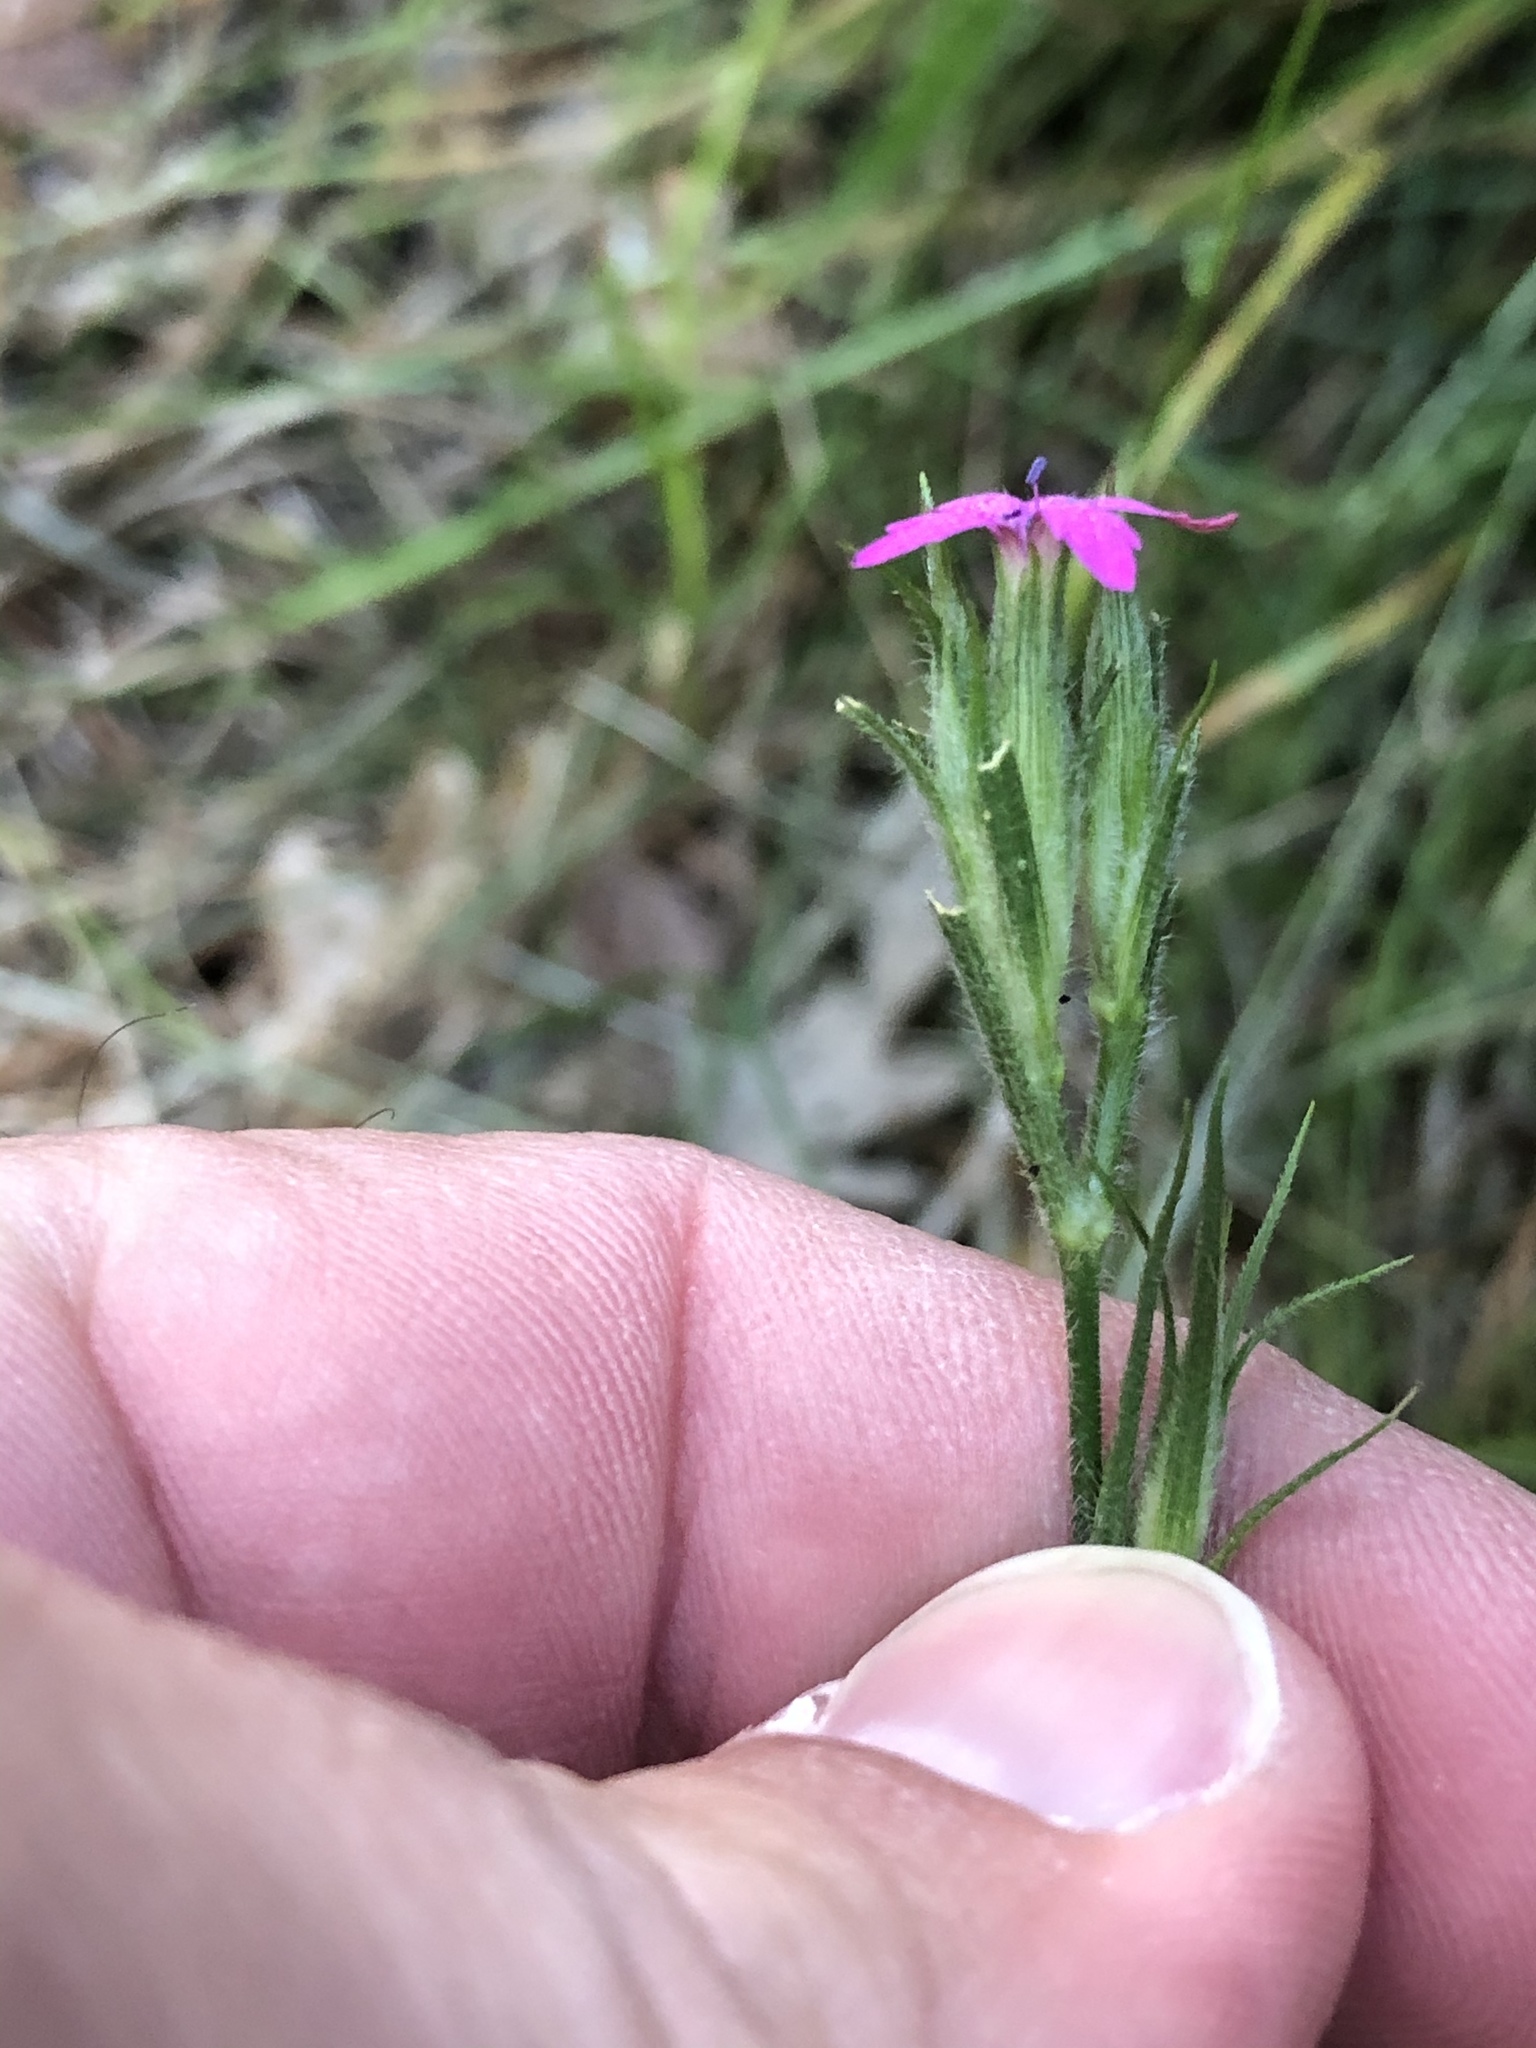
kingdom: Plantae
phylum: Tracheophyta
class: Magnoliopsida
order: Caryophyllales
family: Caryophyllaceae
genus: Dianthus
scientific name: Dianthus armeria
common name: Deptford pink
